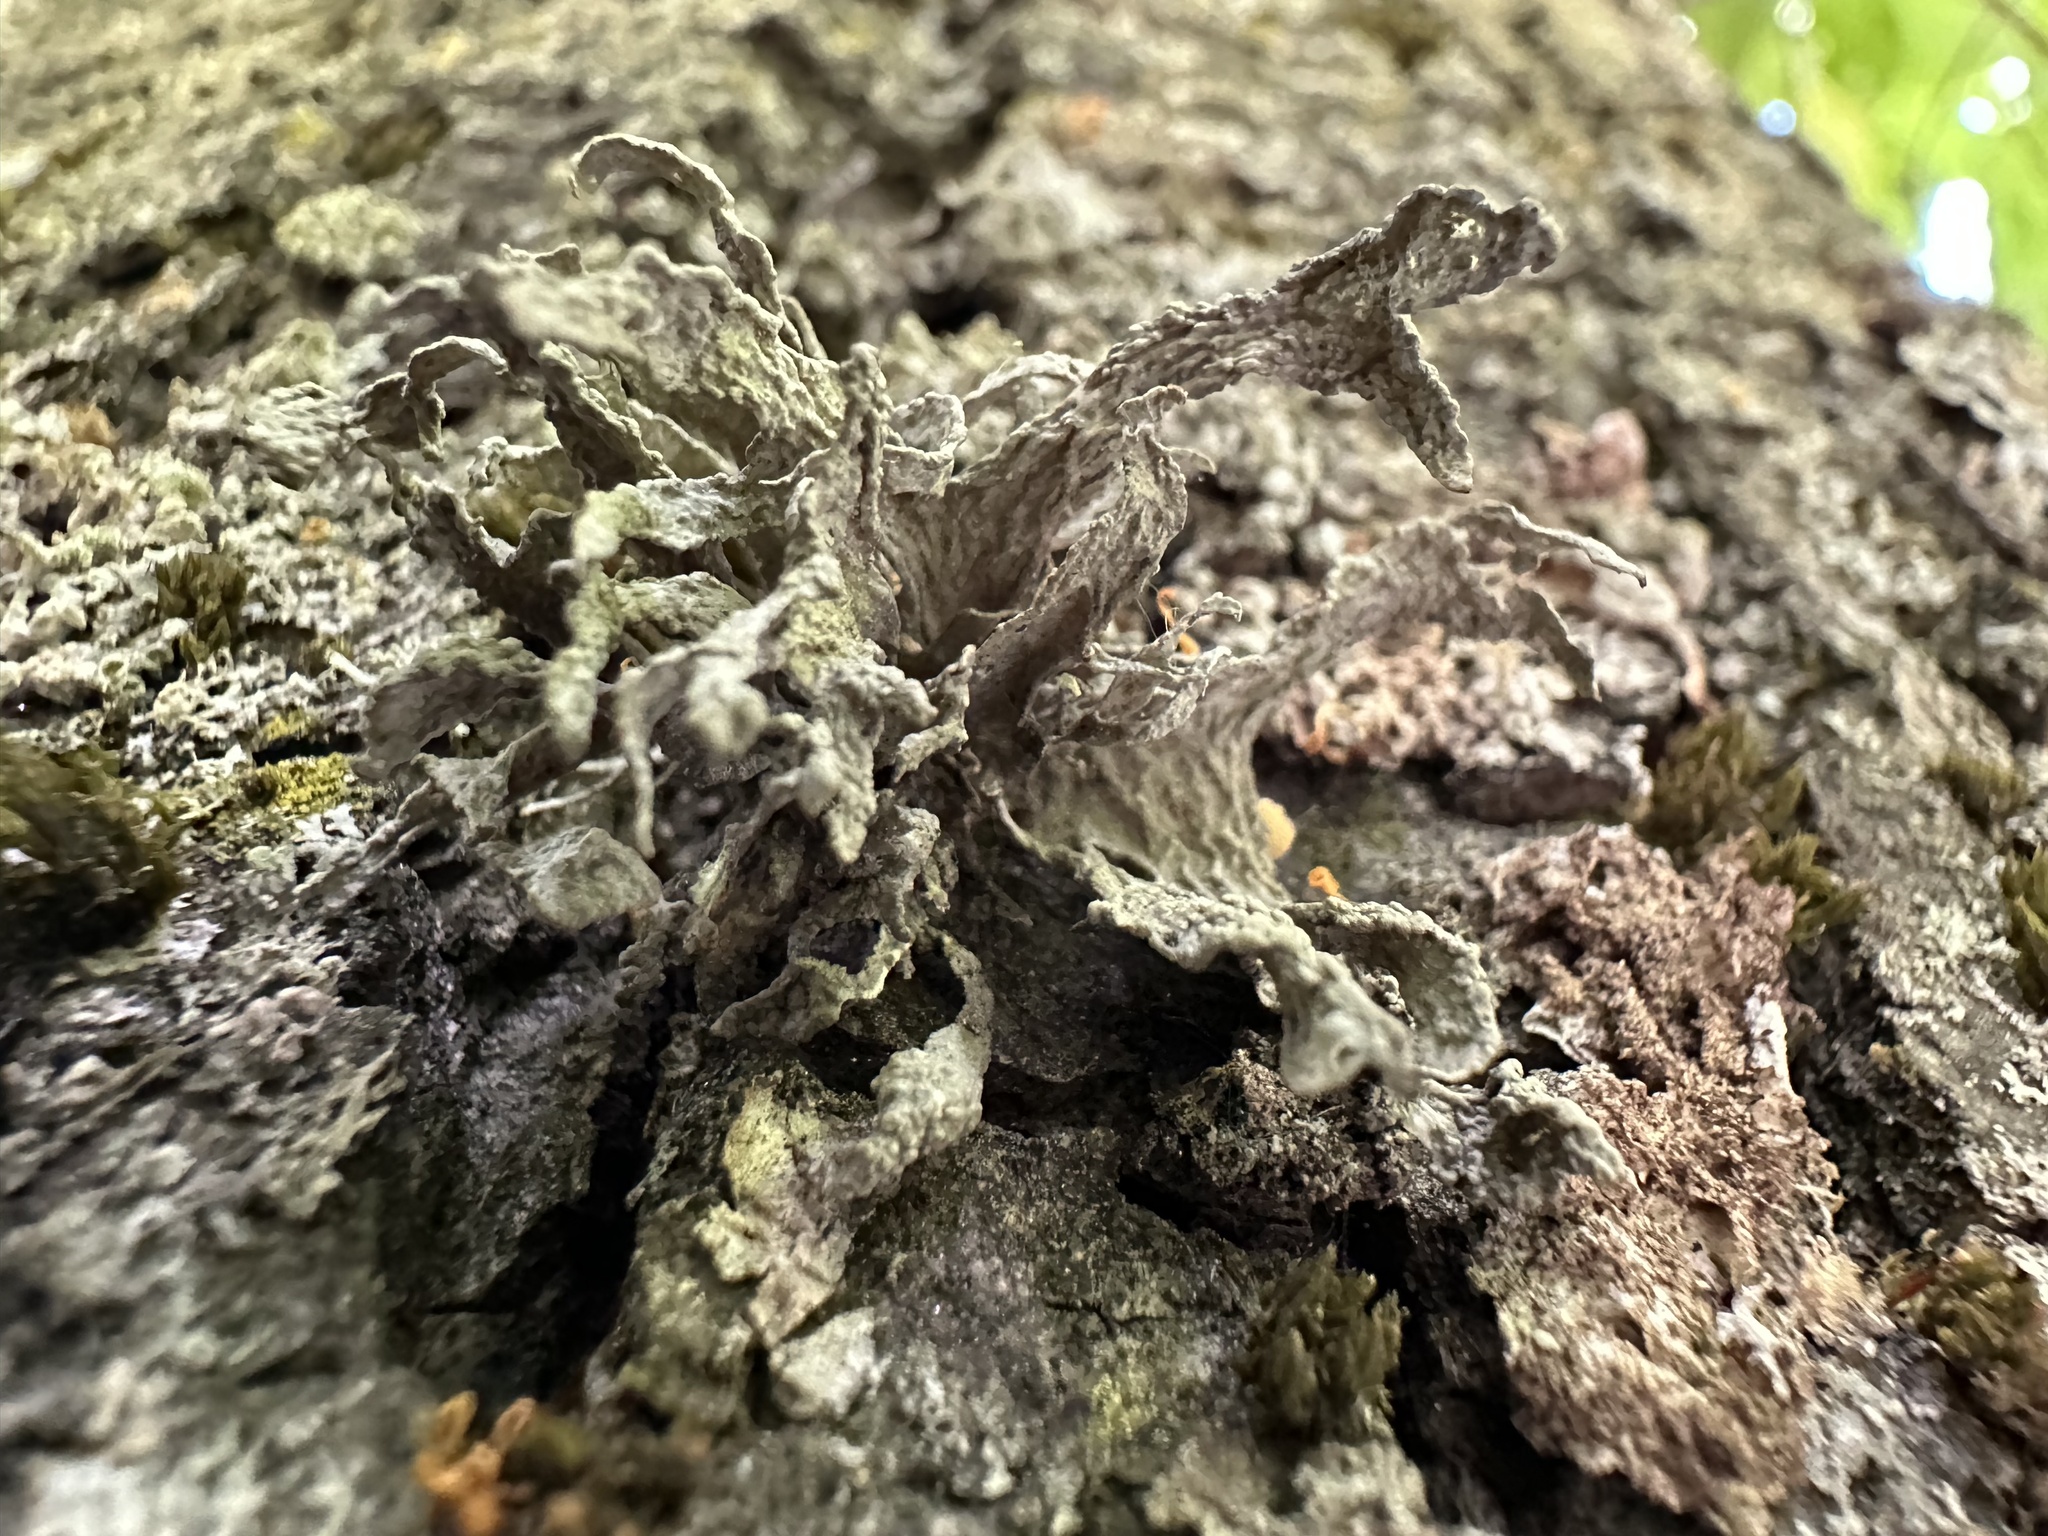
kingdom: Fungi
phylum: Ascomycota
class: Lecanoromycetes
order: Lecanorales
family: Ramalinaceae
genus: Ramalina
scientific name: Ramalina fraxinea
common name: Cartilage lichen
